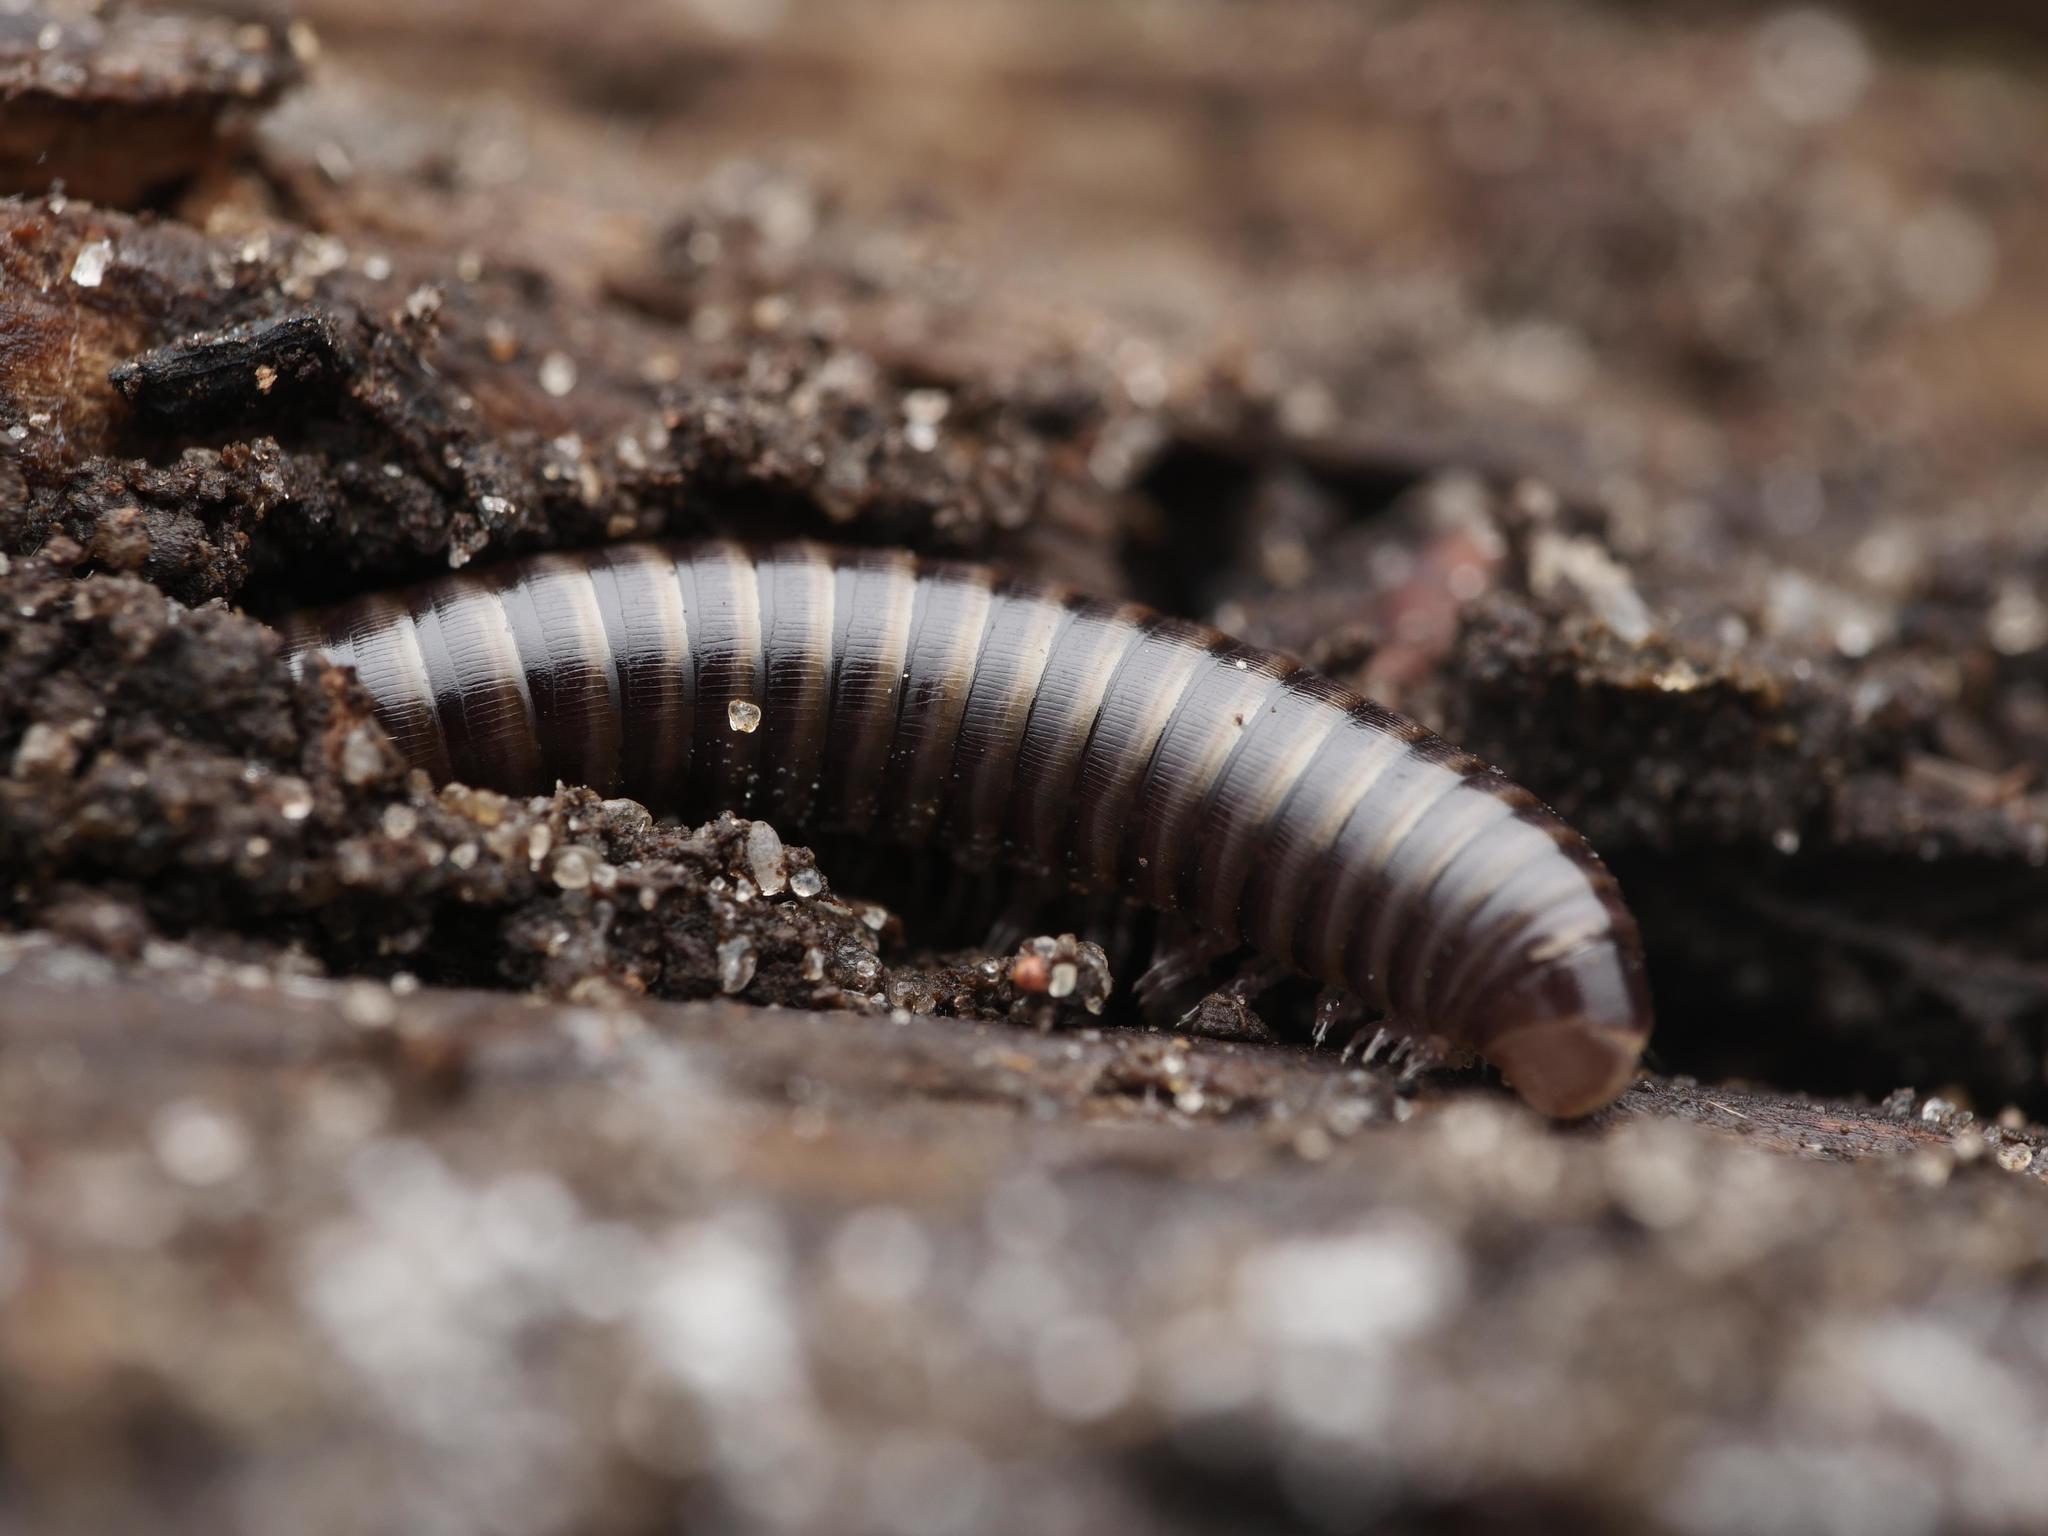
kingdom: Animalia
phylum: Arthropoda
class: Diplopoda
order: Julida
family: Julidae
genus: Cylindroiulus
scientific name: Cylindroiulus caeruleocinctus
